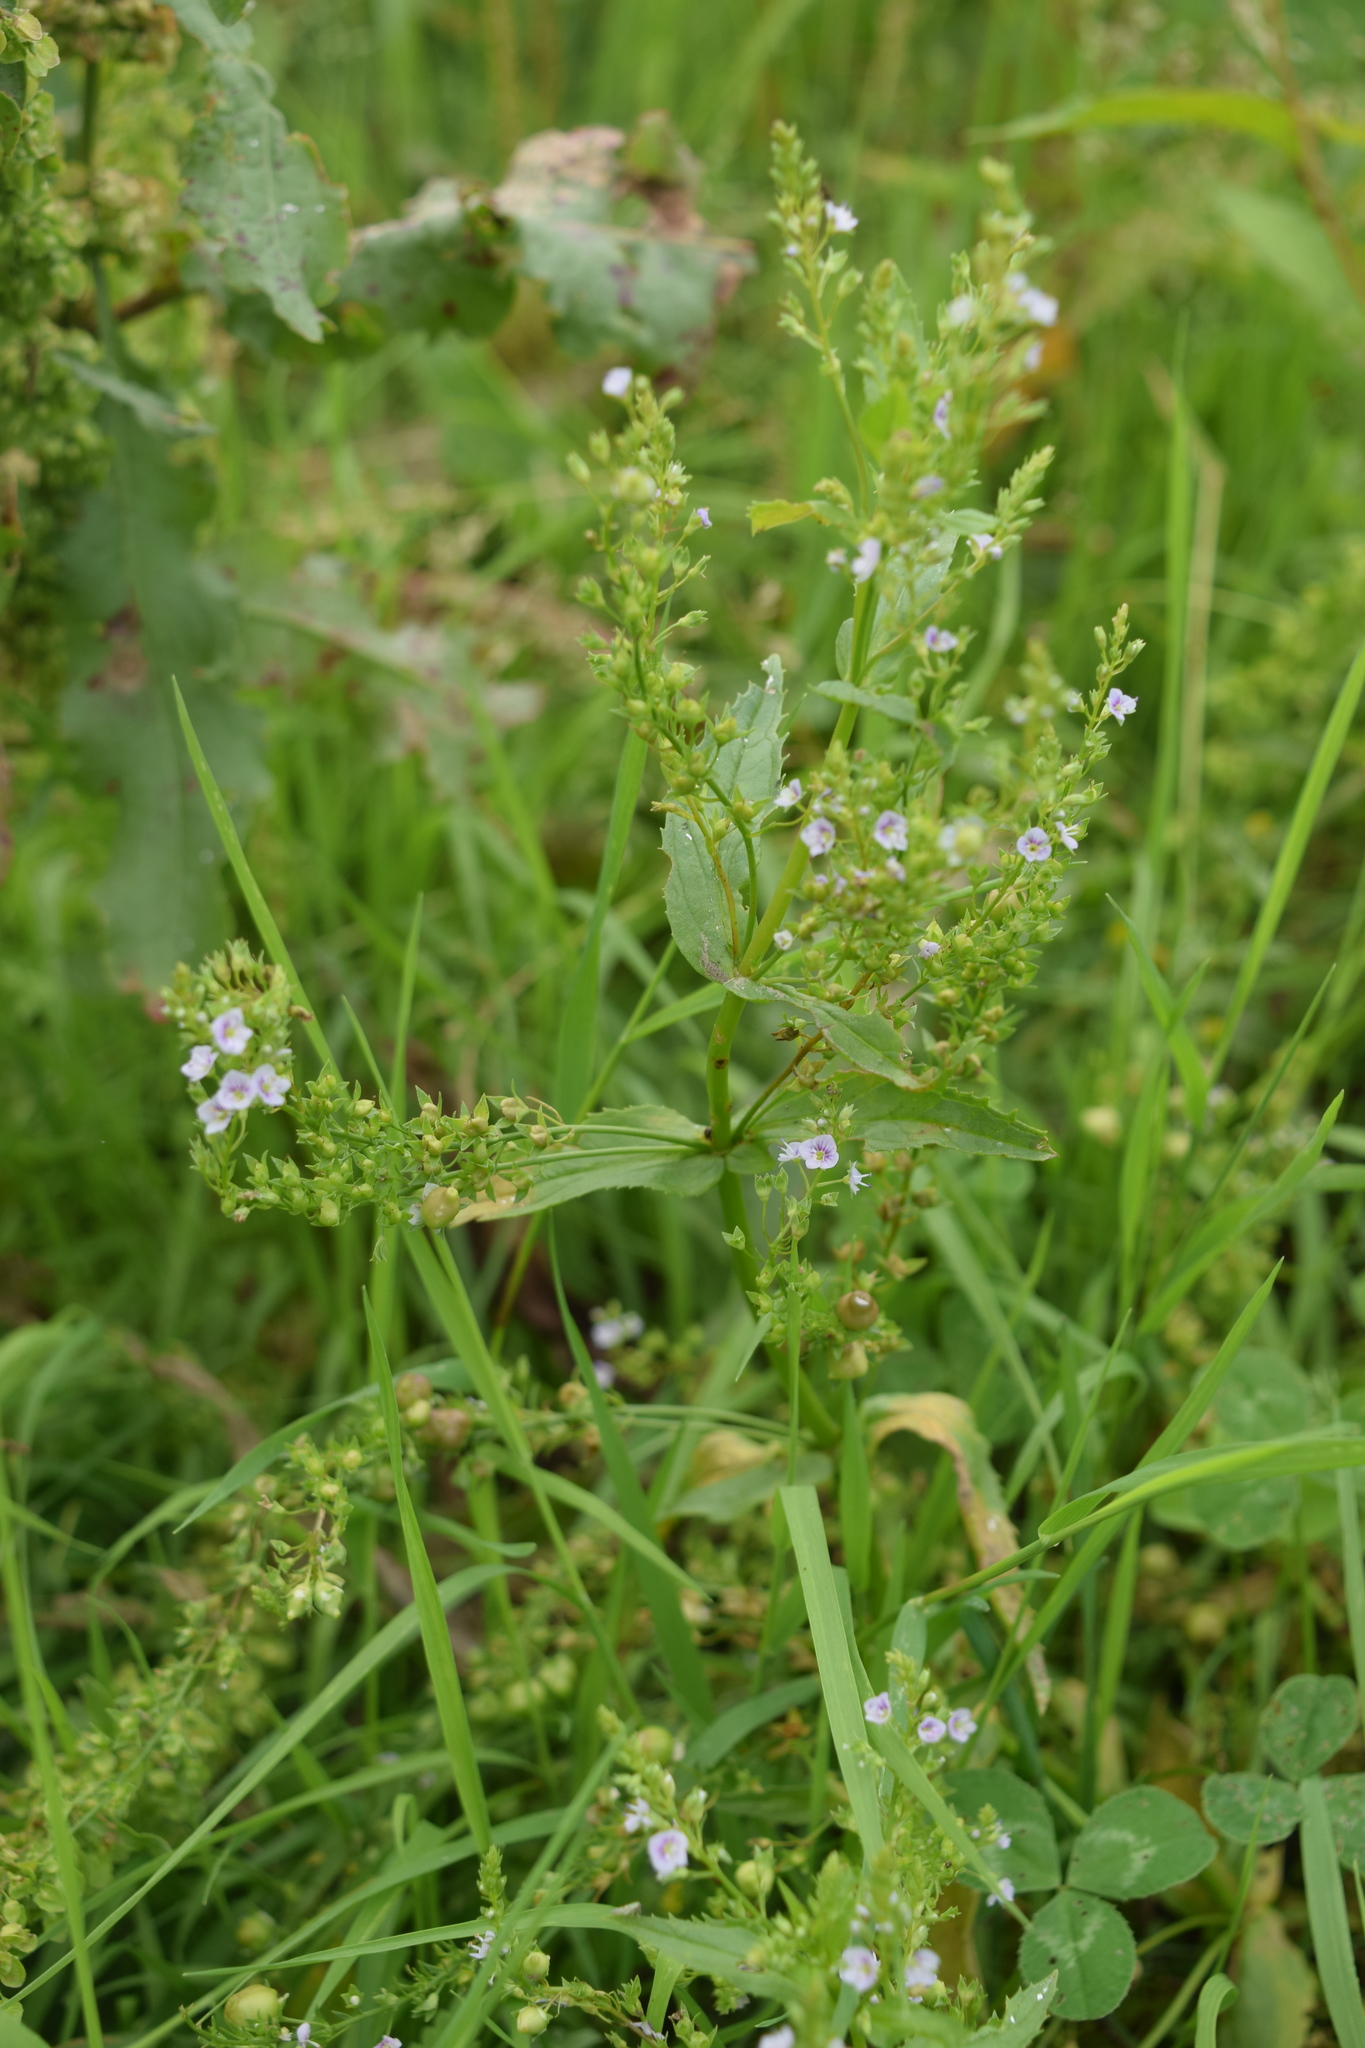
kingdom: Plantae
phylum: Tracheophyta
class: Magnoliopsida
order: Lamiales
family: Plantaginaceae
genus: Veronica
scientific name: Veronica anagallis-aquatica
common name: Water speedwell
